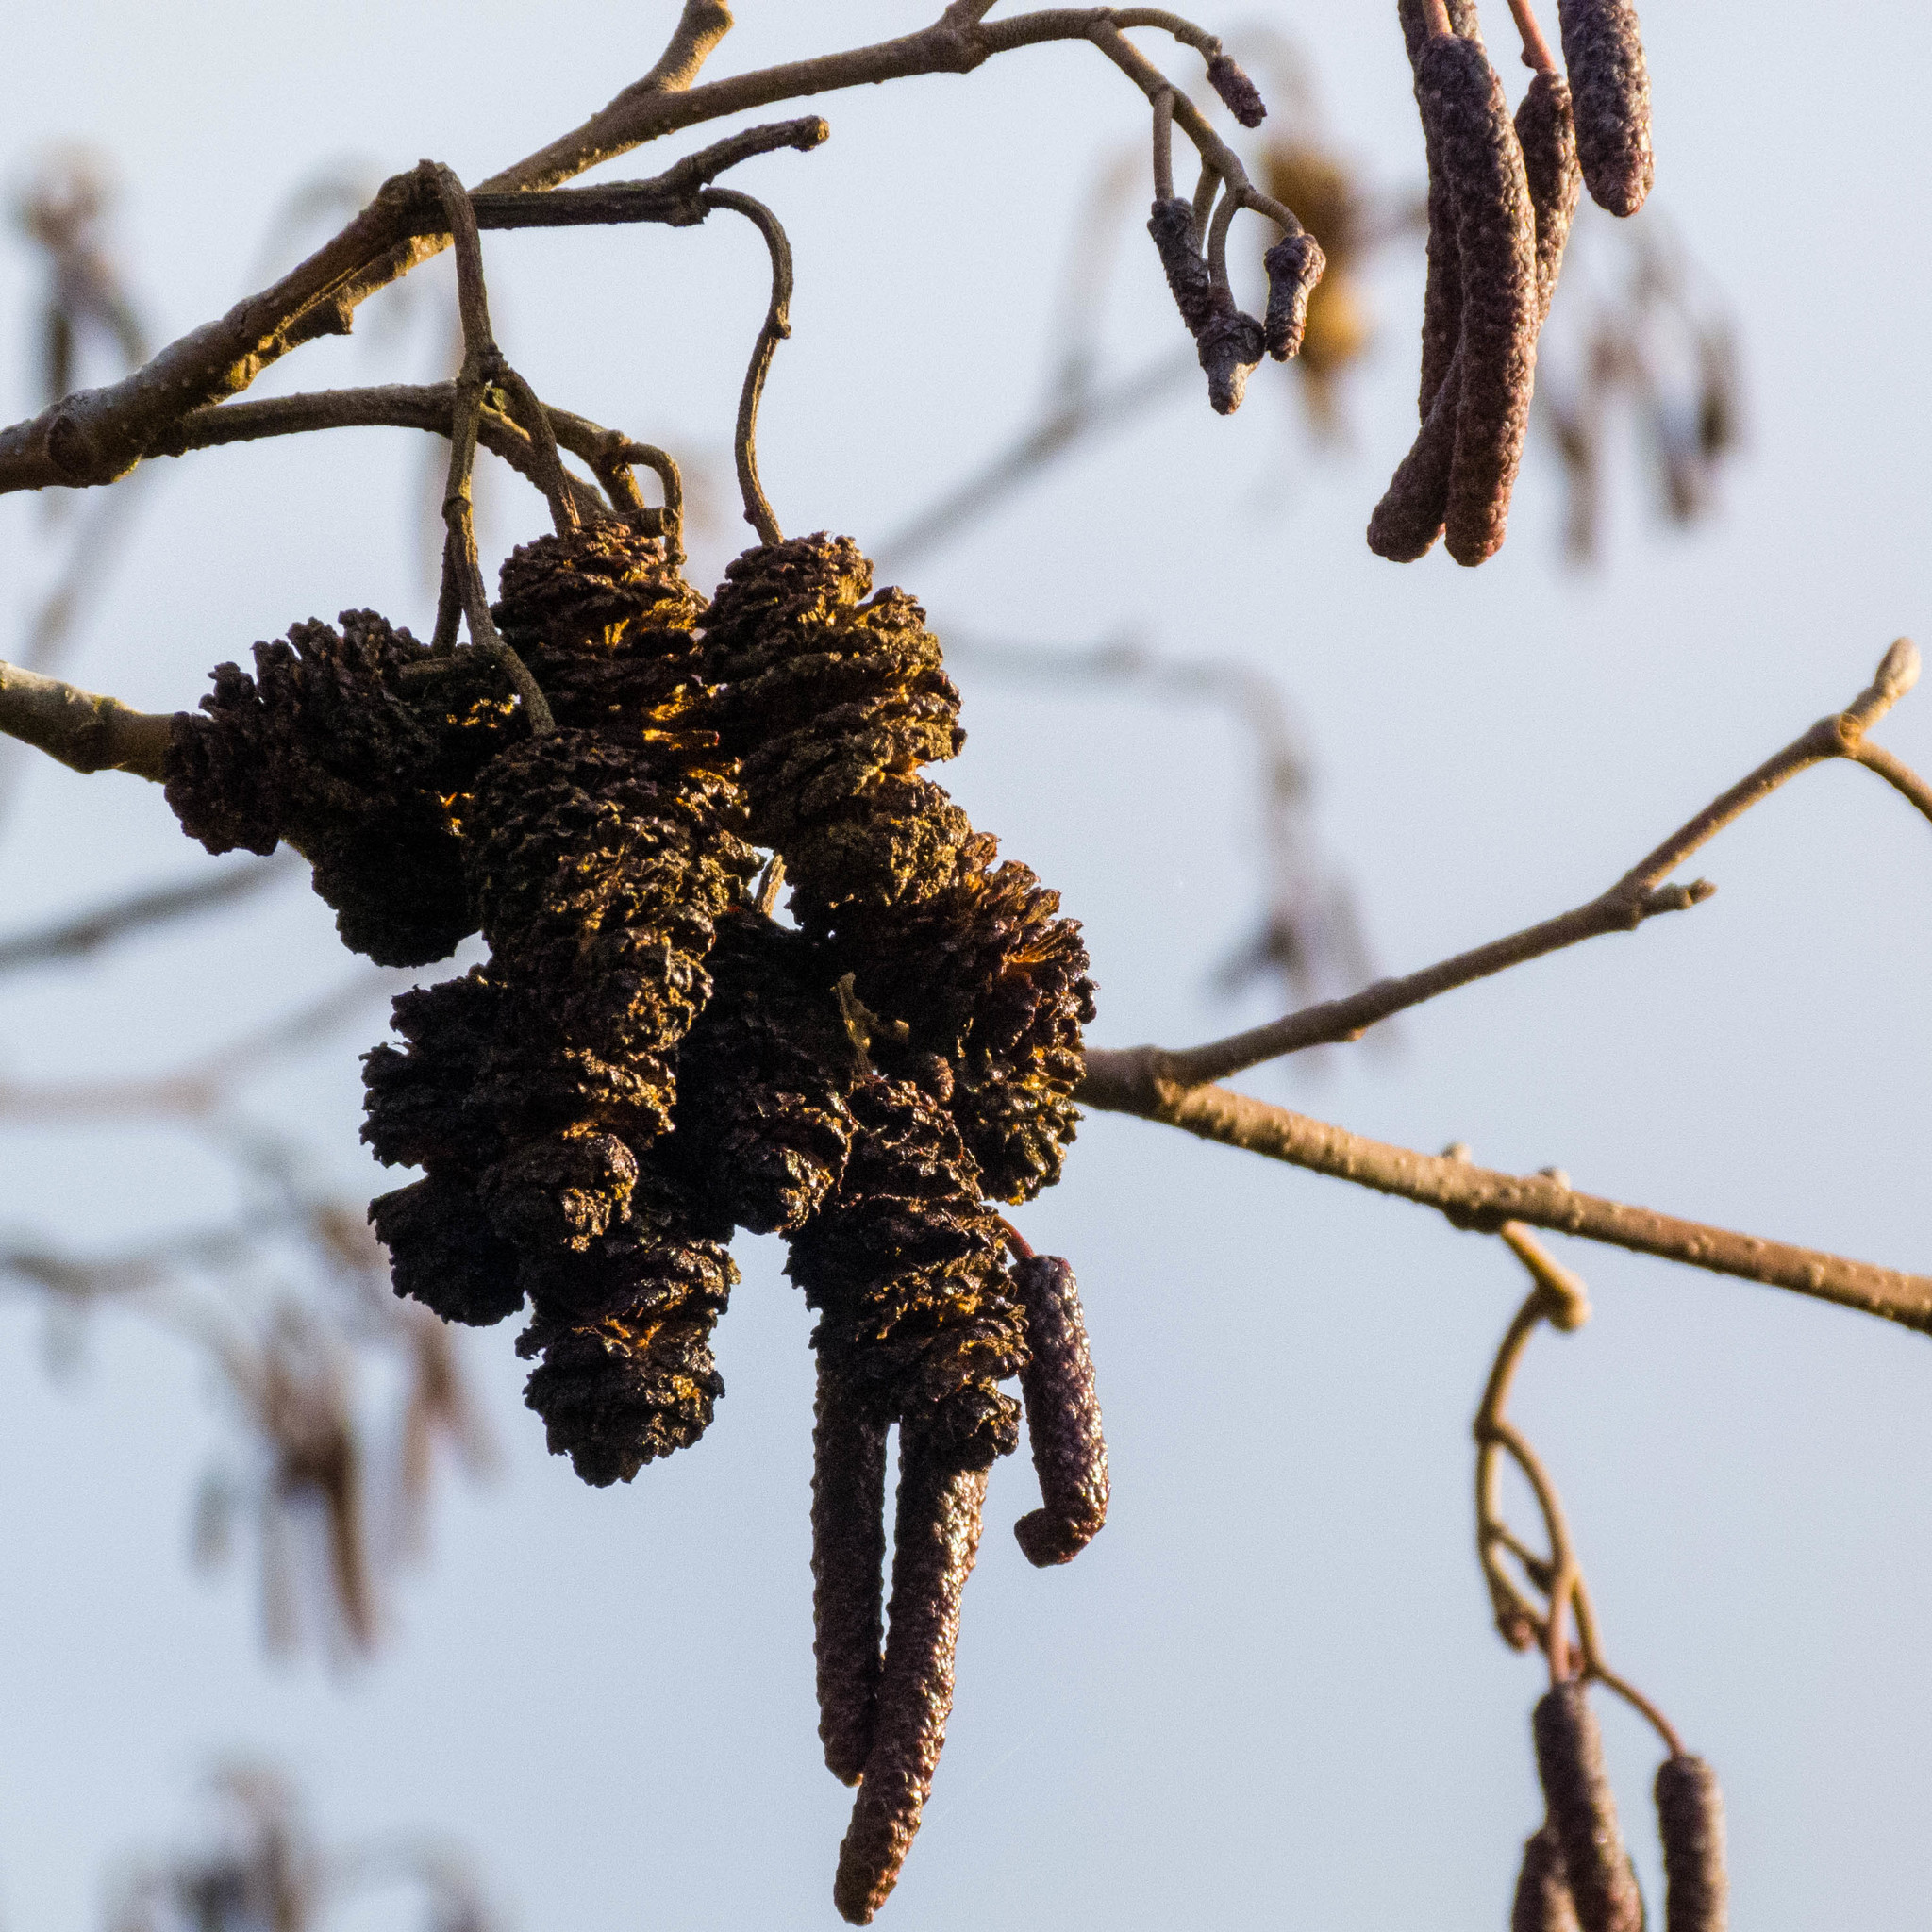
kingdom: Plantae
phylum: Tracheophyta
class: Magnoliopsida
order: Fagales
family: Betulaceae
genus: Alnus
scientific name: Alnus glutinosa
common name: Black alder
